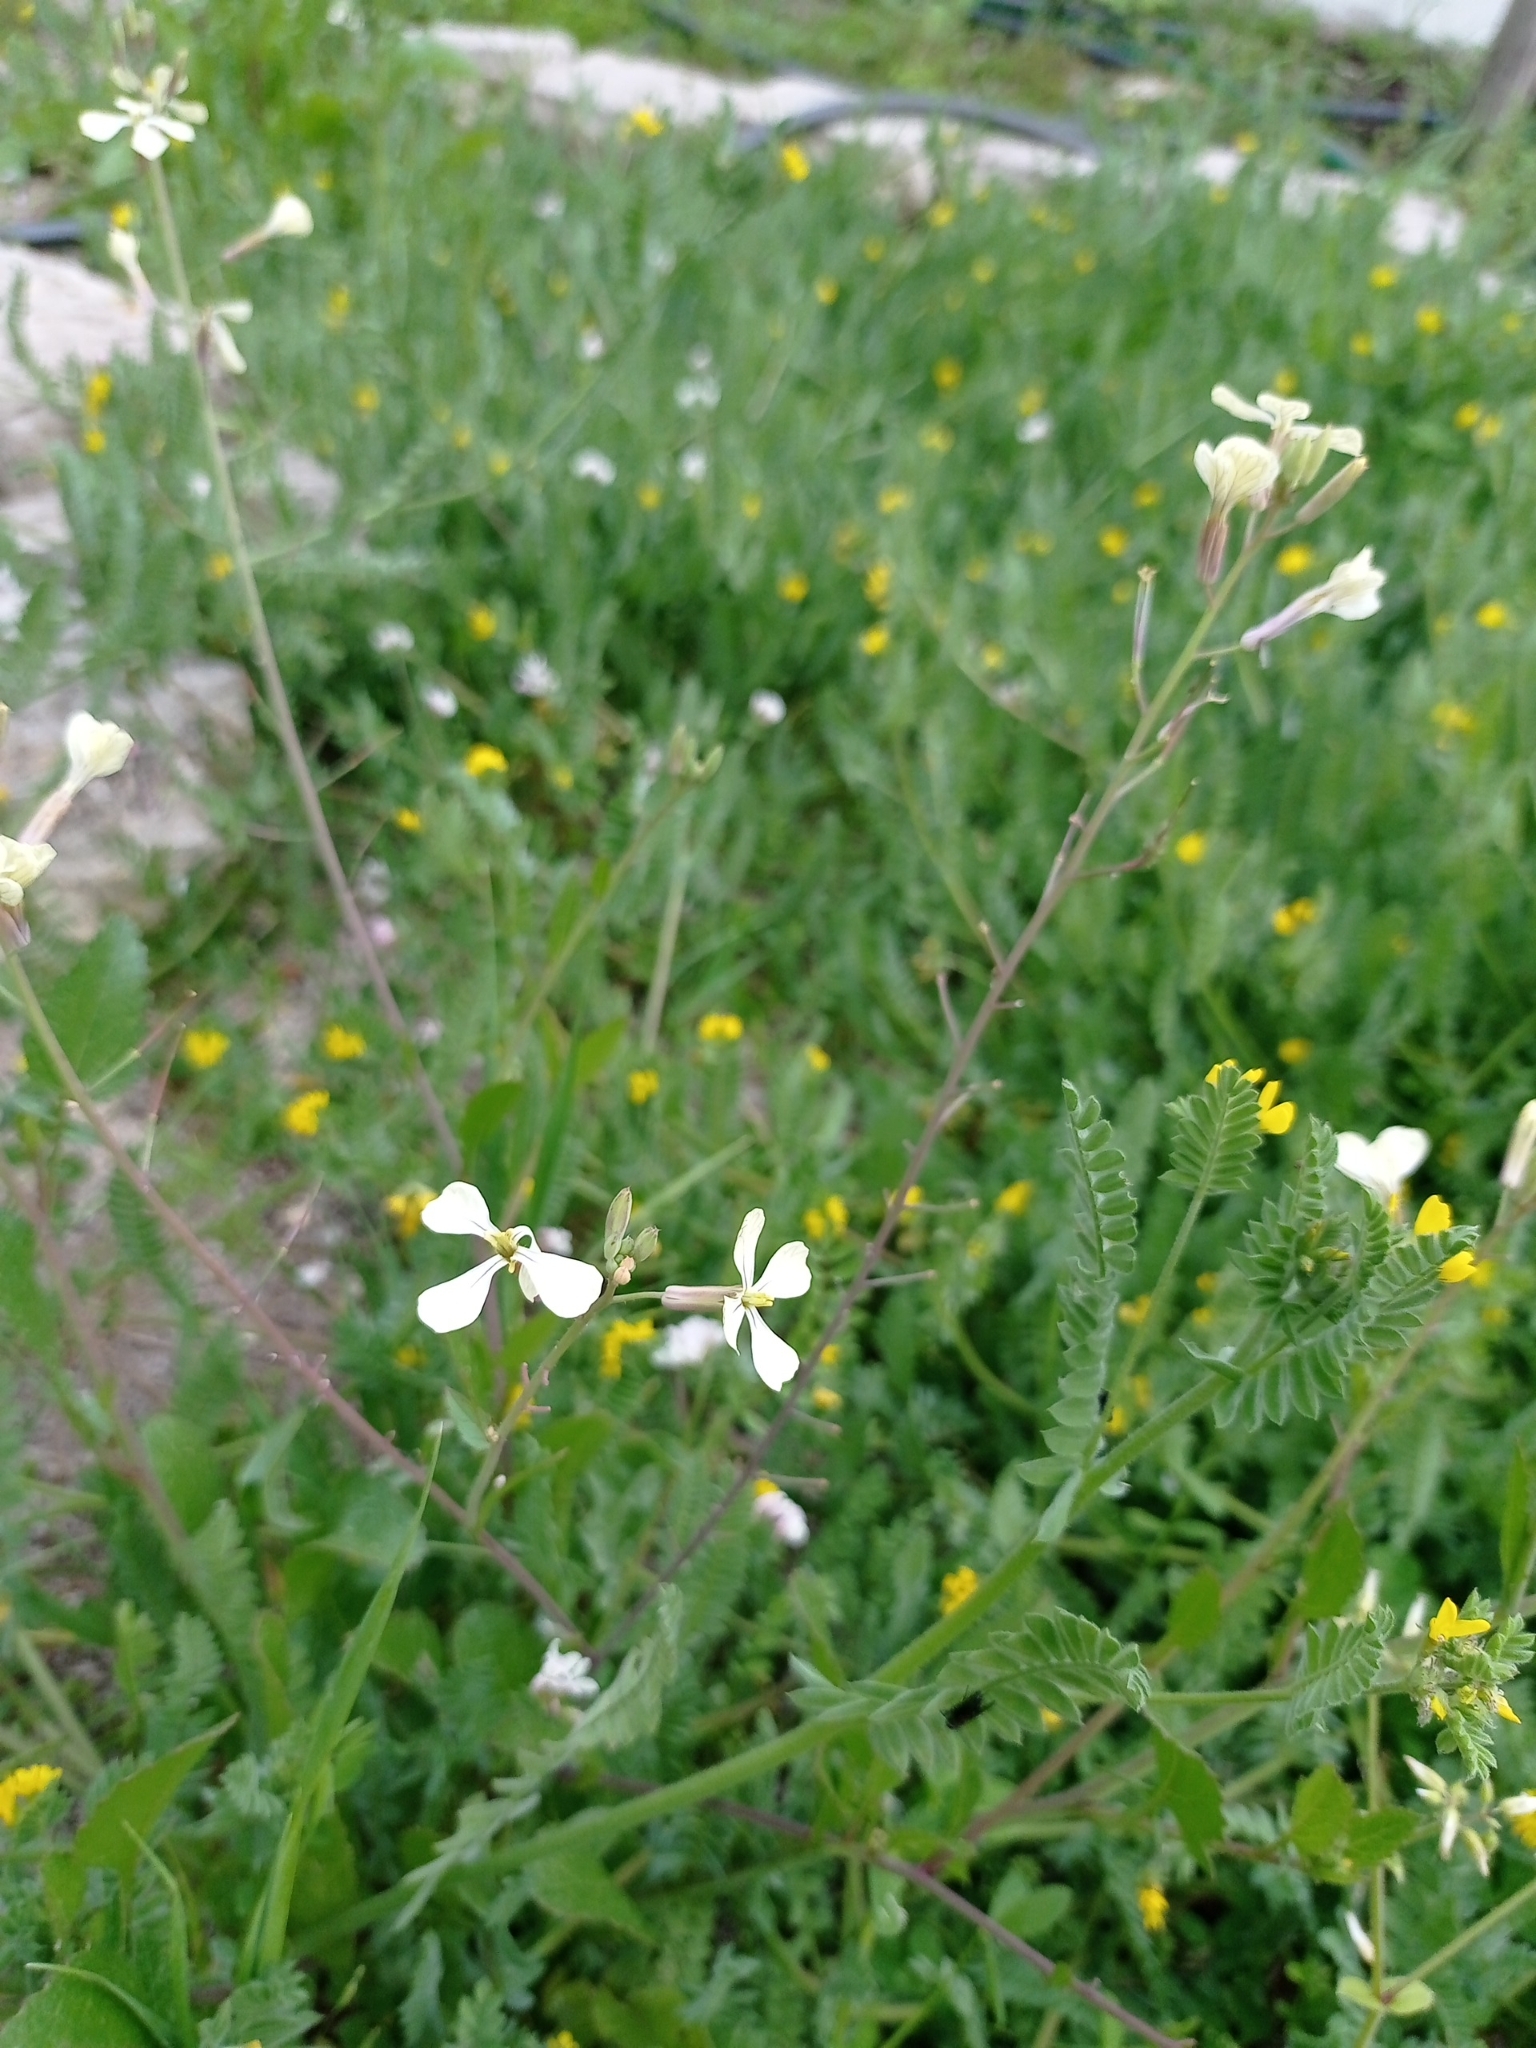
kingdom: Plantae
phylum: Tracheophyta
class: Magnoliopsida
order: Brassicales
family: Brassicaceae
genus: Raphanus
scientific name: Raphanus raphanistrum
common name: Wild radish
